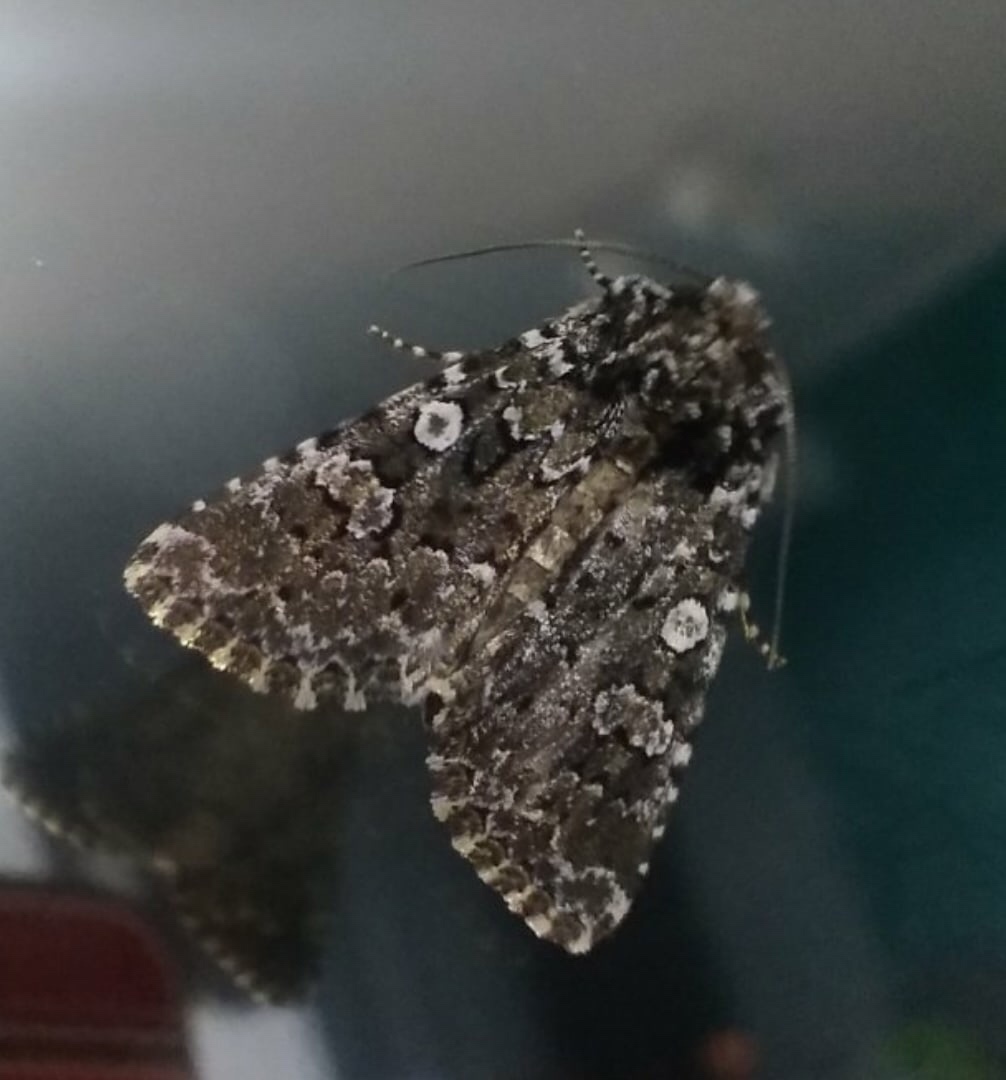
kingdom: Animalia
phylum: Arthropoda
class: Insecta
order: Lepidoptera
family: Noctuidae
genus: Hadena
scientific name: Hadena magnolii
